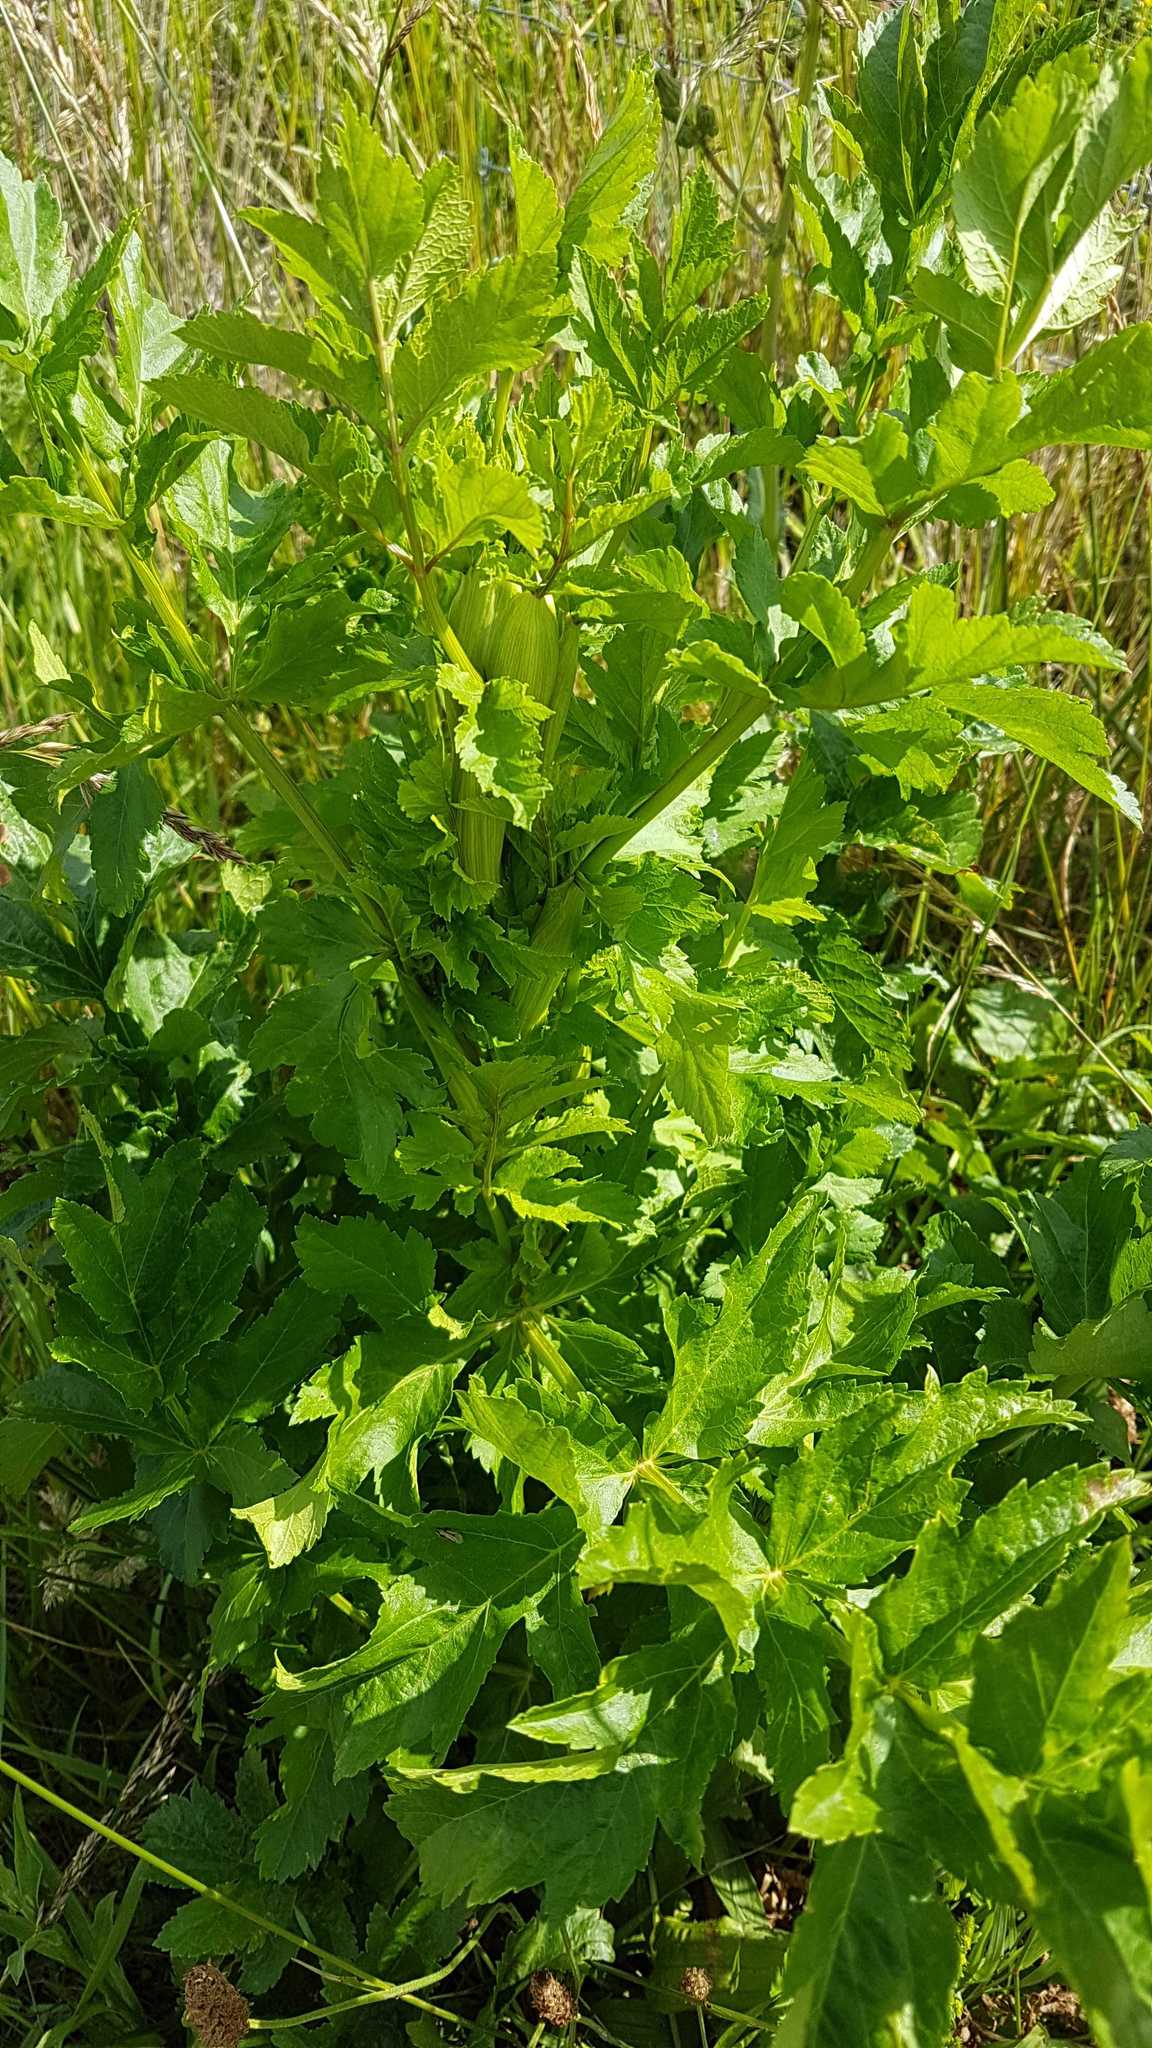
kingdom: Plantae
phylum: Tracheophyta
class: Magnoliopsida
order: Apiales
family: Apiaceae
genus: Pastinaca
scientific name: Pastinaca sativa
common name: Wild parsnip
